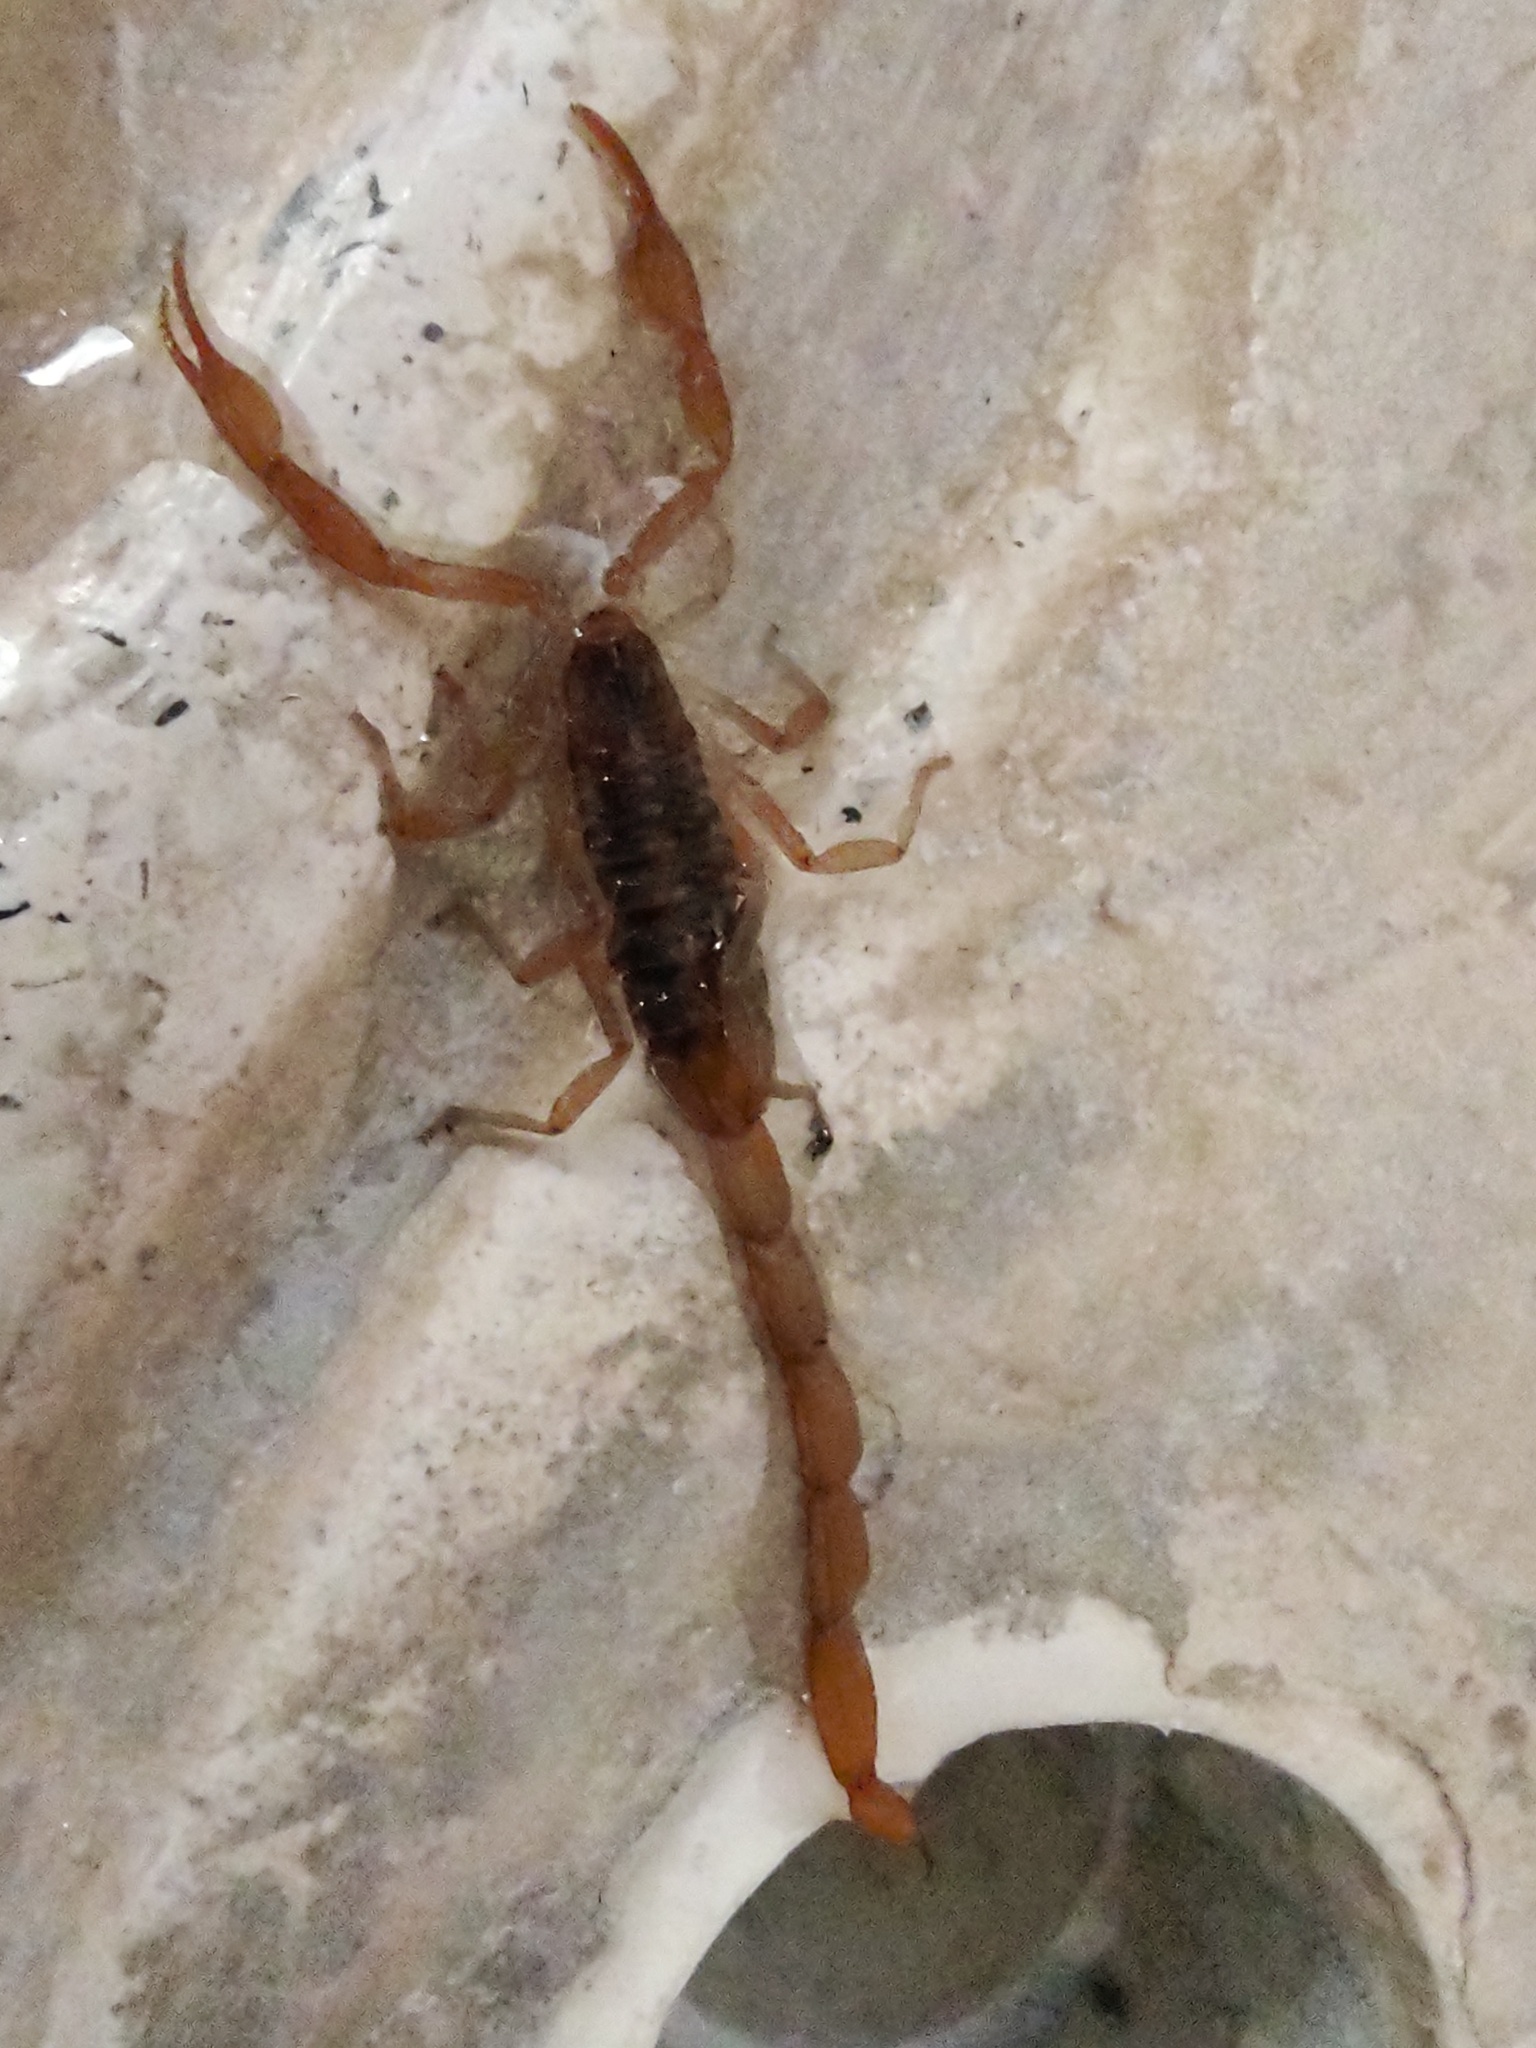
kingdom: Animalia
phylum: Arthropoda
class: Arachnida
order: Scorpiones
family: Buthidae
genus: Centruroides
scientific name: Centruroides ornatus
